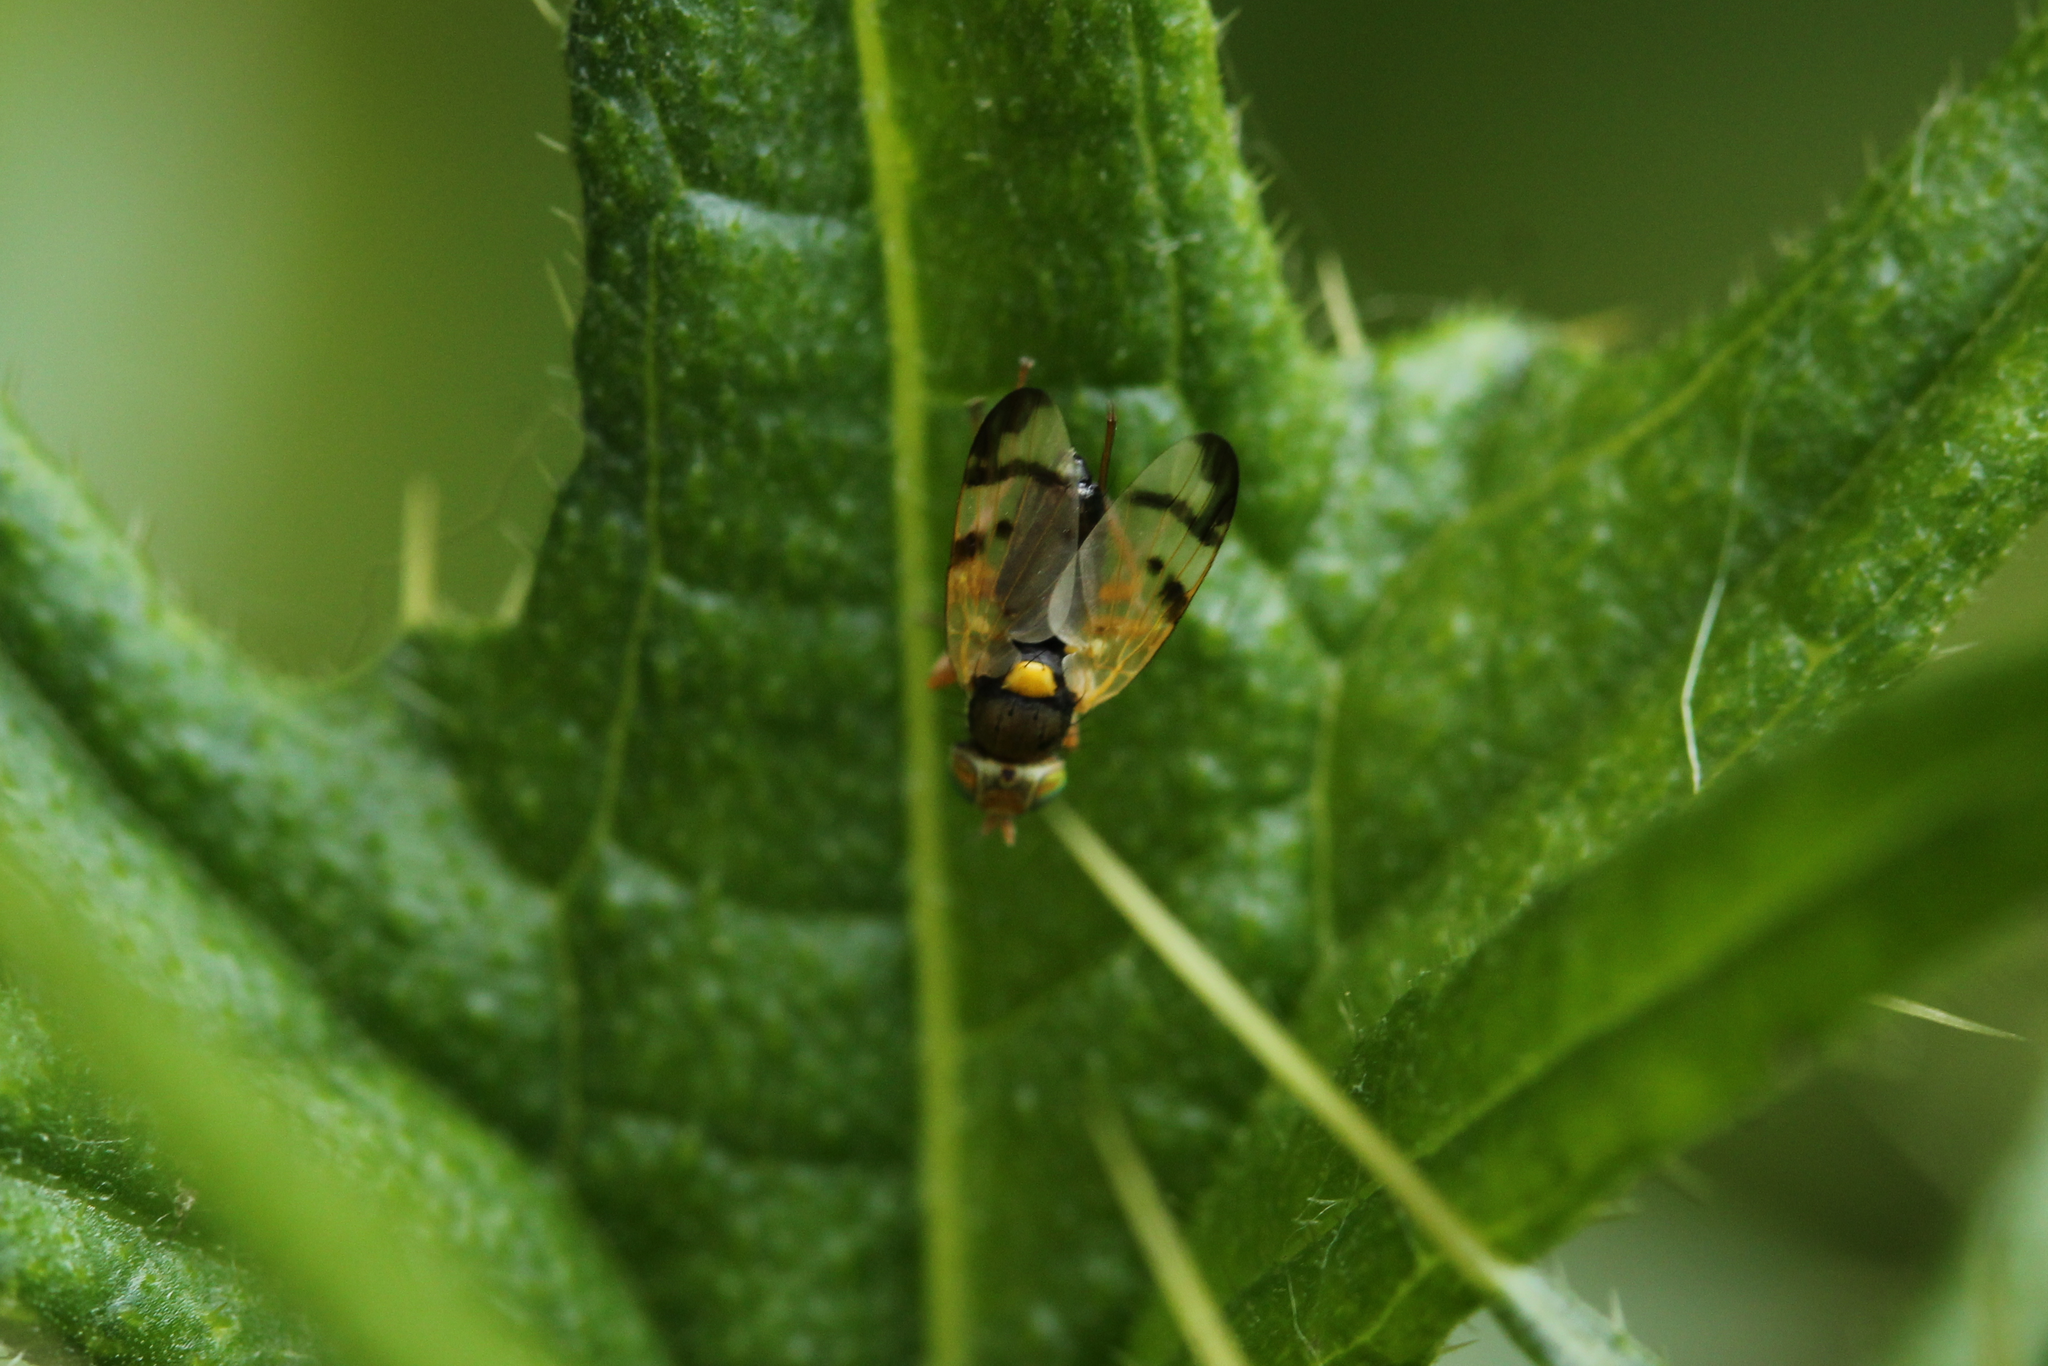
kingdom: Animalia
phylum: Arthropoda
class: Insecta
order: Diptera
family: Tephritidae
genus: Urophora
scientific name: Urophora stylata
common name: Fruit fly
